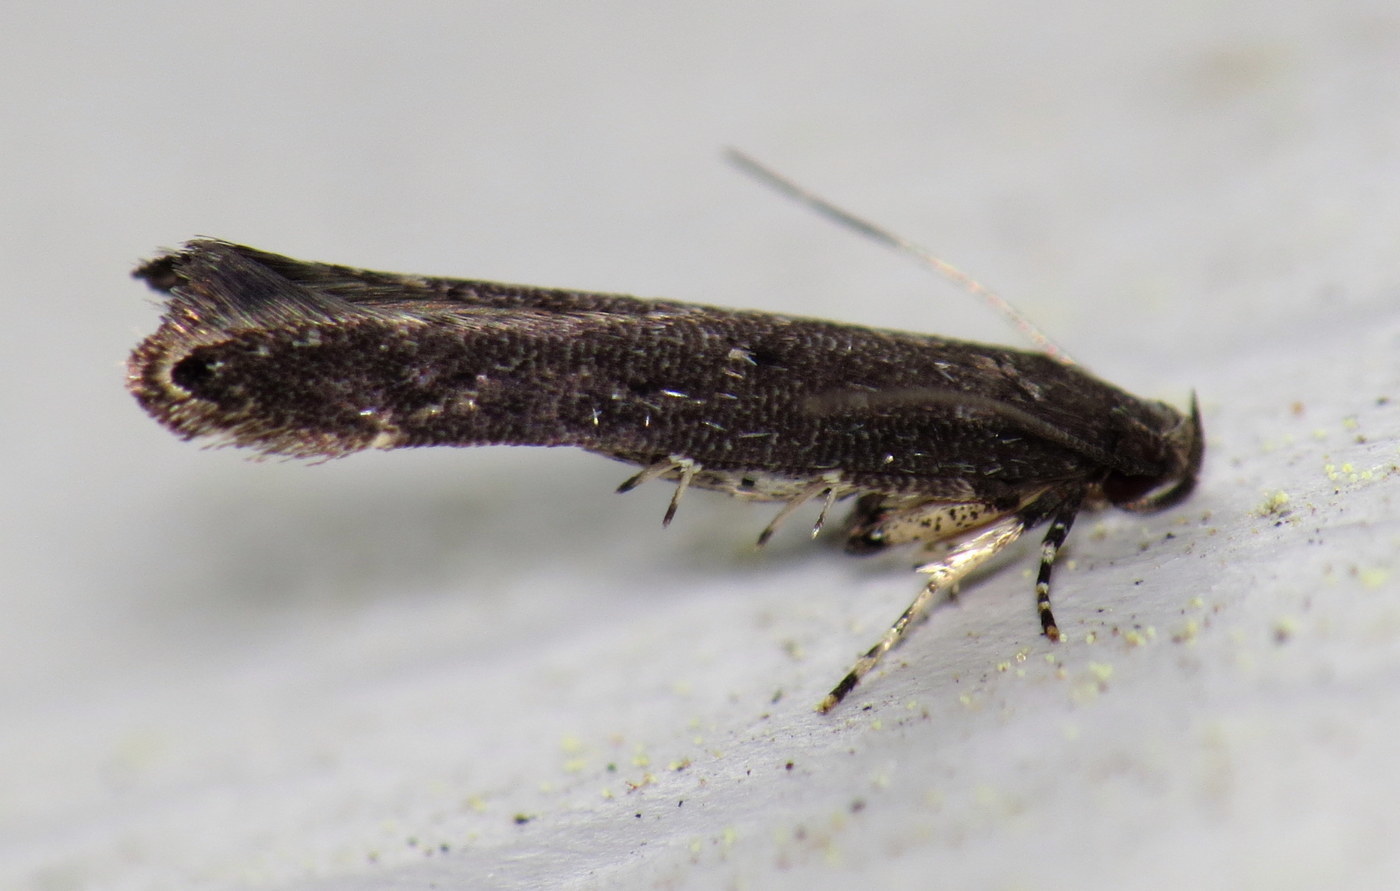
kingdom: Animalia
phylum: Arthropoda
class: Insecta
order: Lepidoptera
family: Cosmopterigidae
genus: Ithome
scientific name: Ithome erransella
